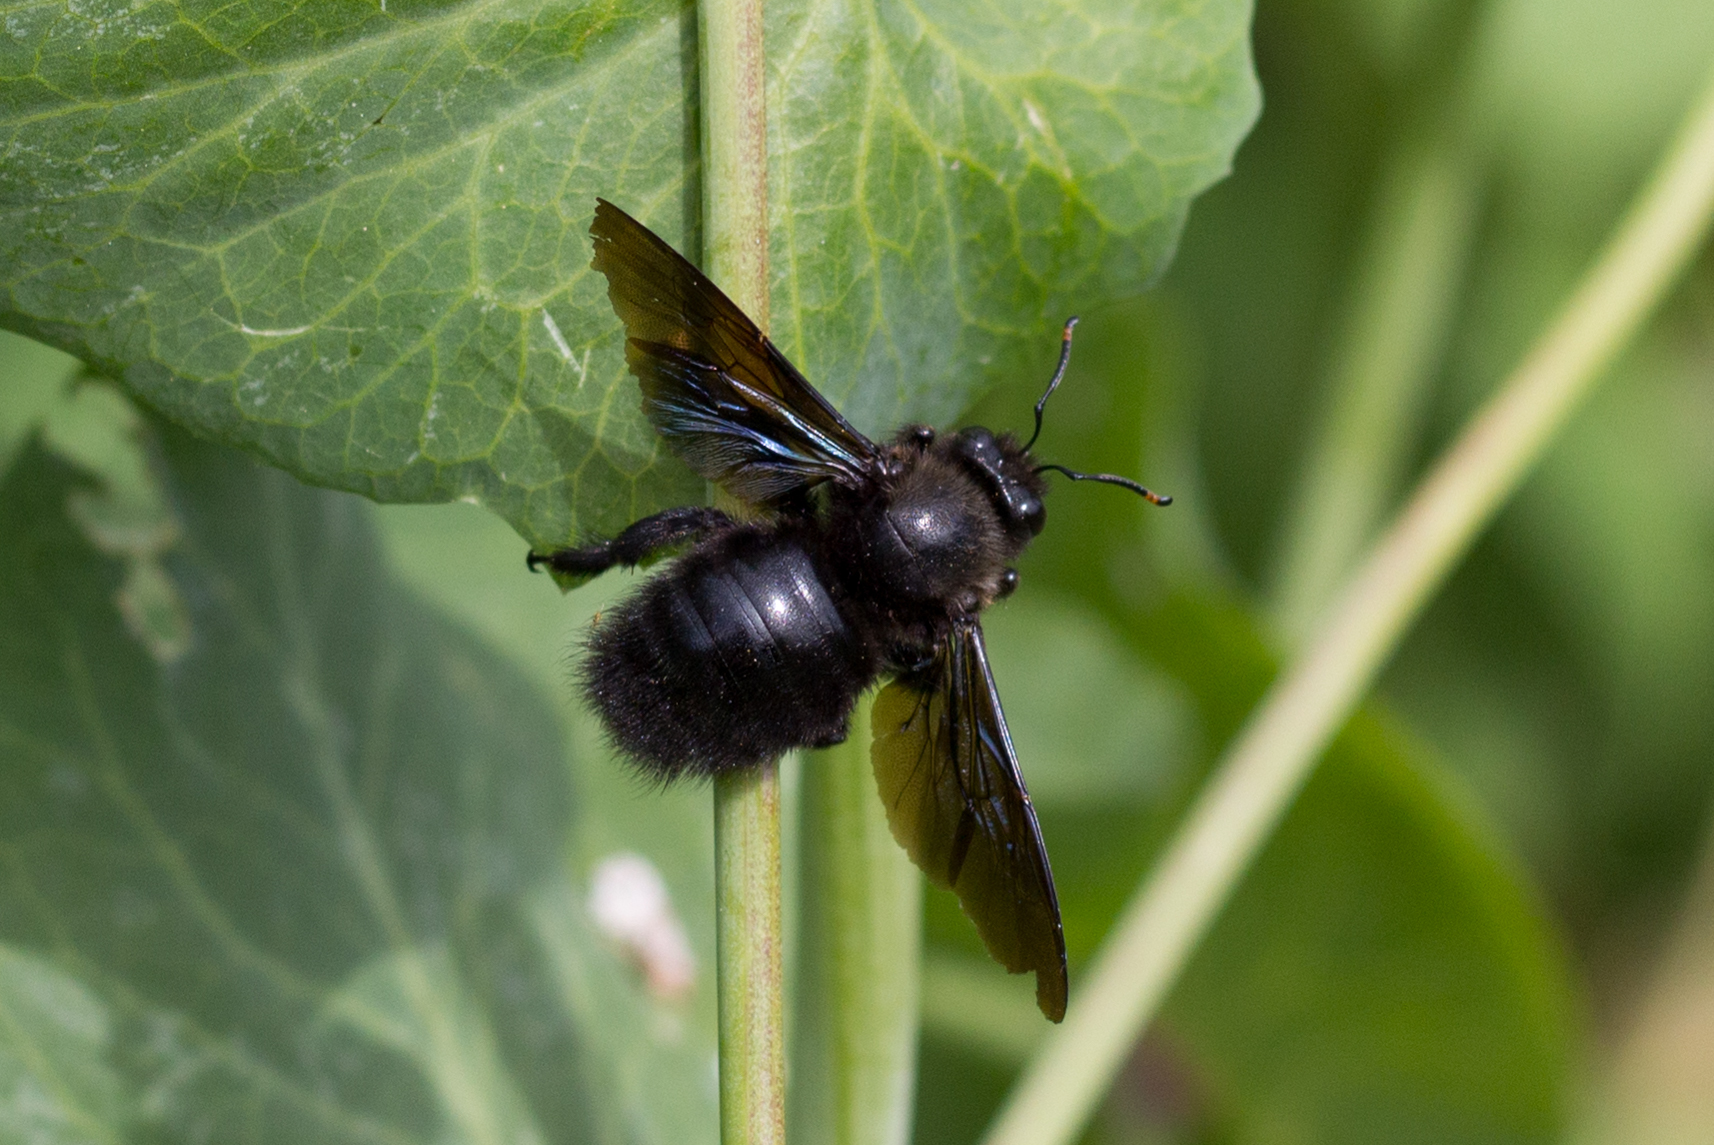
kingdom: Animalia
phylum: Arthropoda
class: Insecta
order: Hymenoptera
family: Apidae
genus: Xylocopa
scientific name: Xylocopa violacea
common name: Violet carpenter bee
